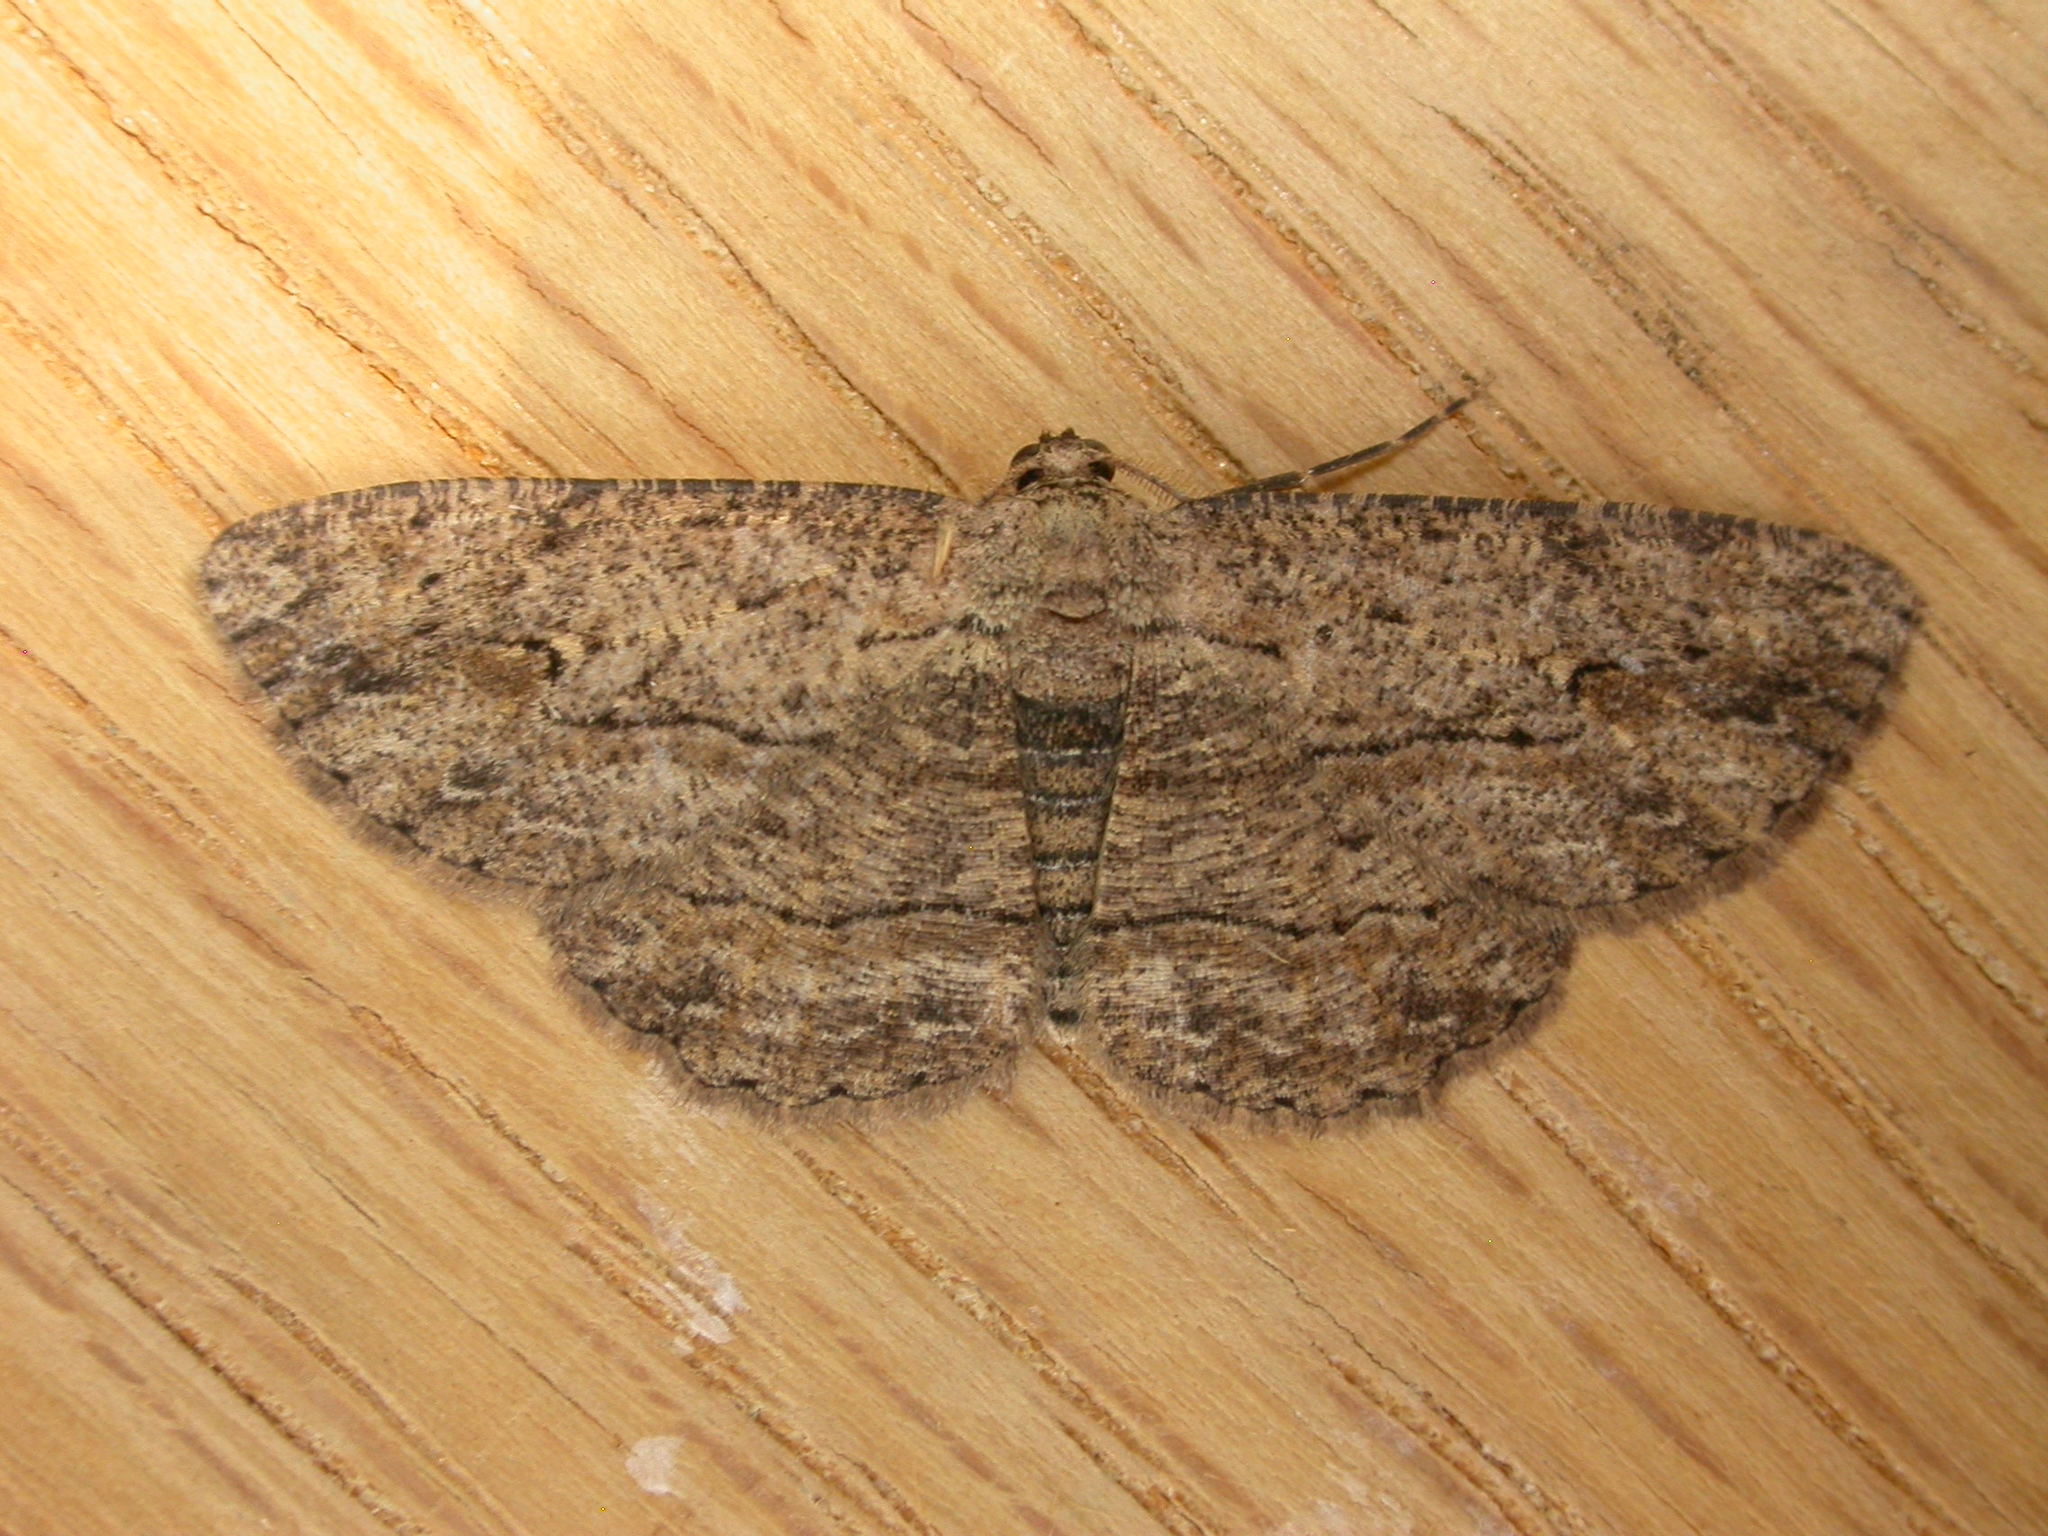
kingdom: Animalia
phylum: Arthropoda
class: Insecta
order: Lepidoptera
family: Geometridae
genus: Ectropis
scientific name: Ectropis excursaria
